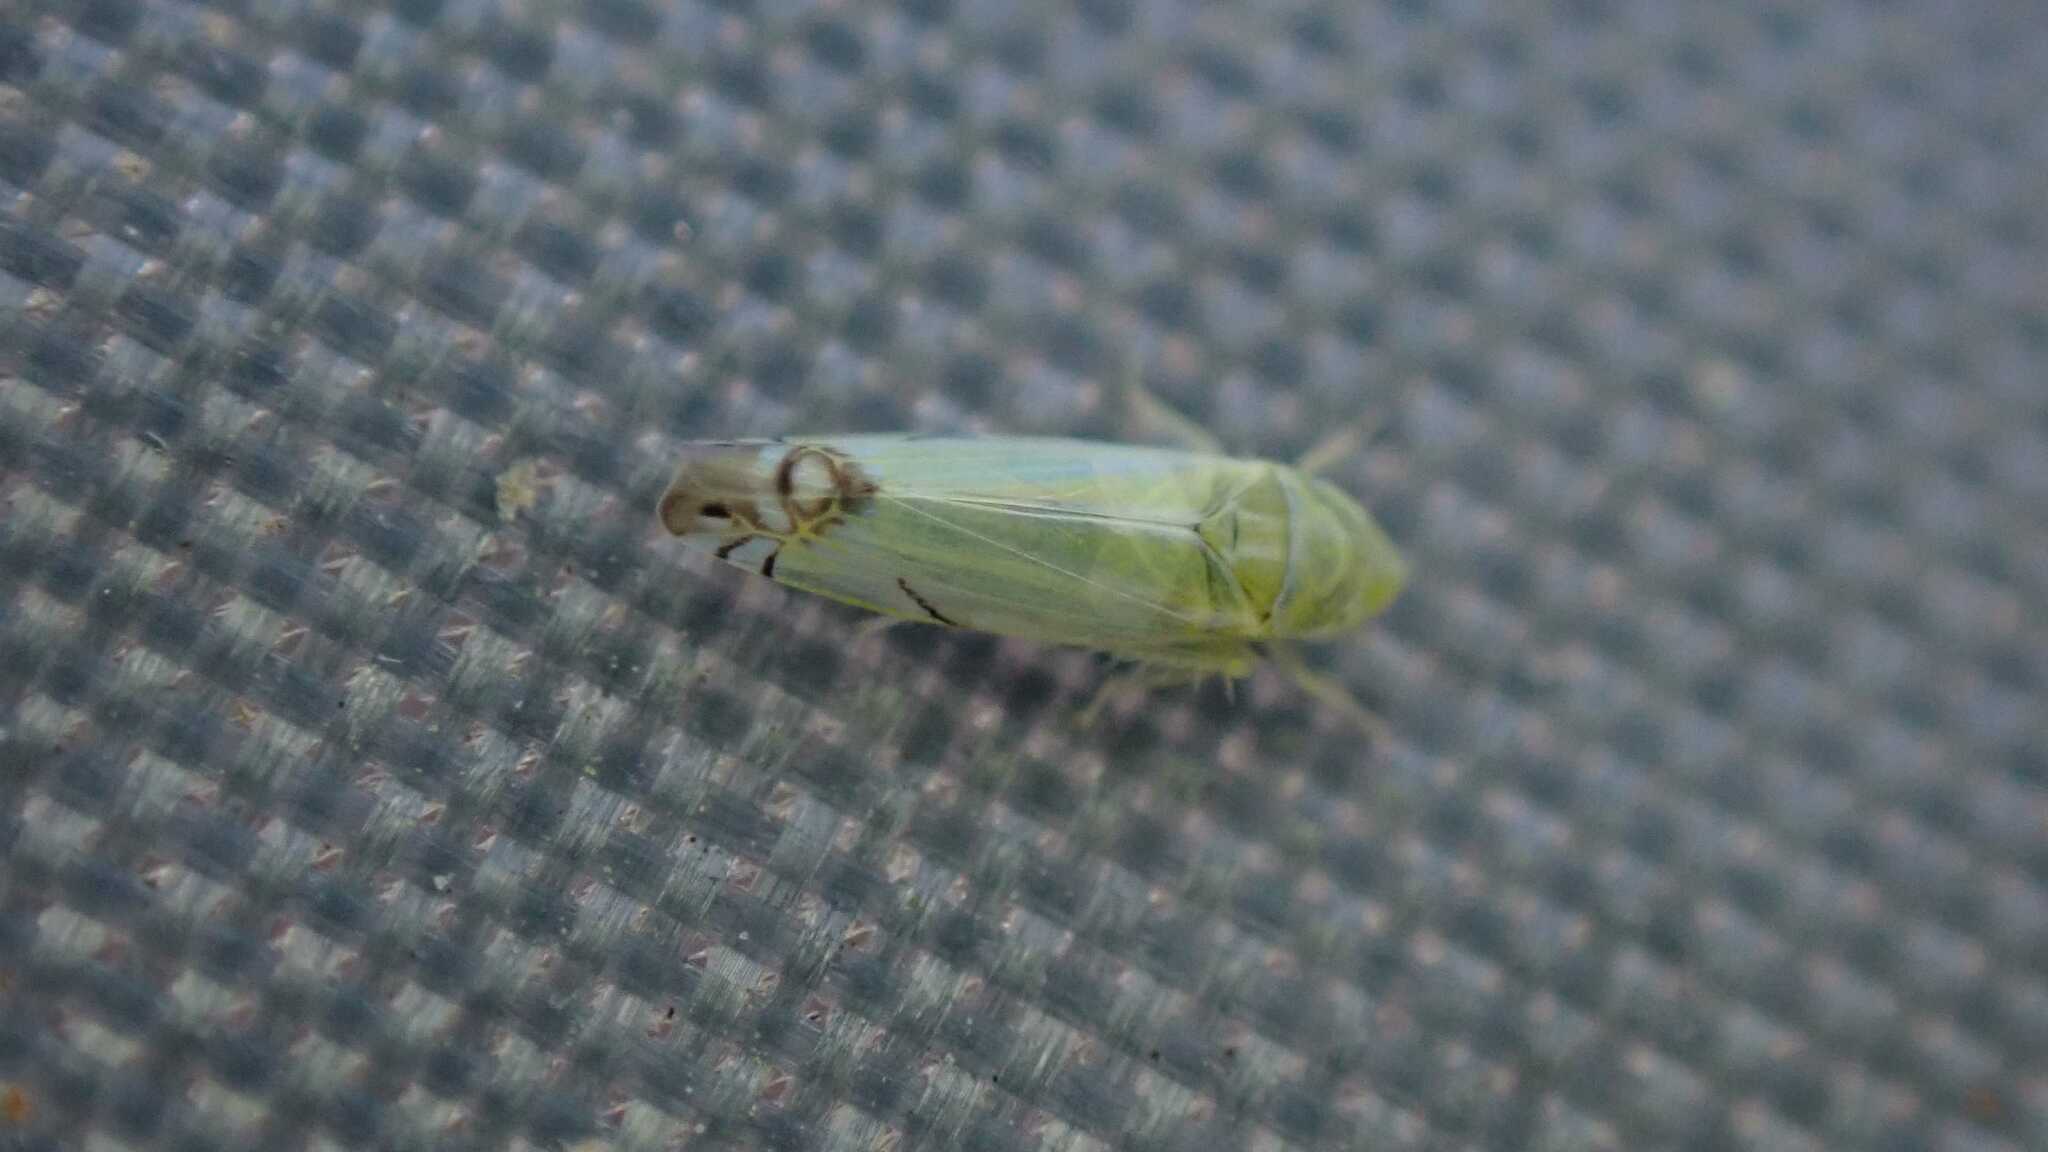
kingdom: Animalia
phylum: Arthropoda
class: Insecta
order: Hemiptera
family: Cicadellidae
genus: Zyginella
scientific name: Zyginella pulchra
